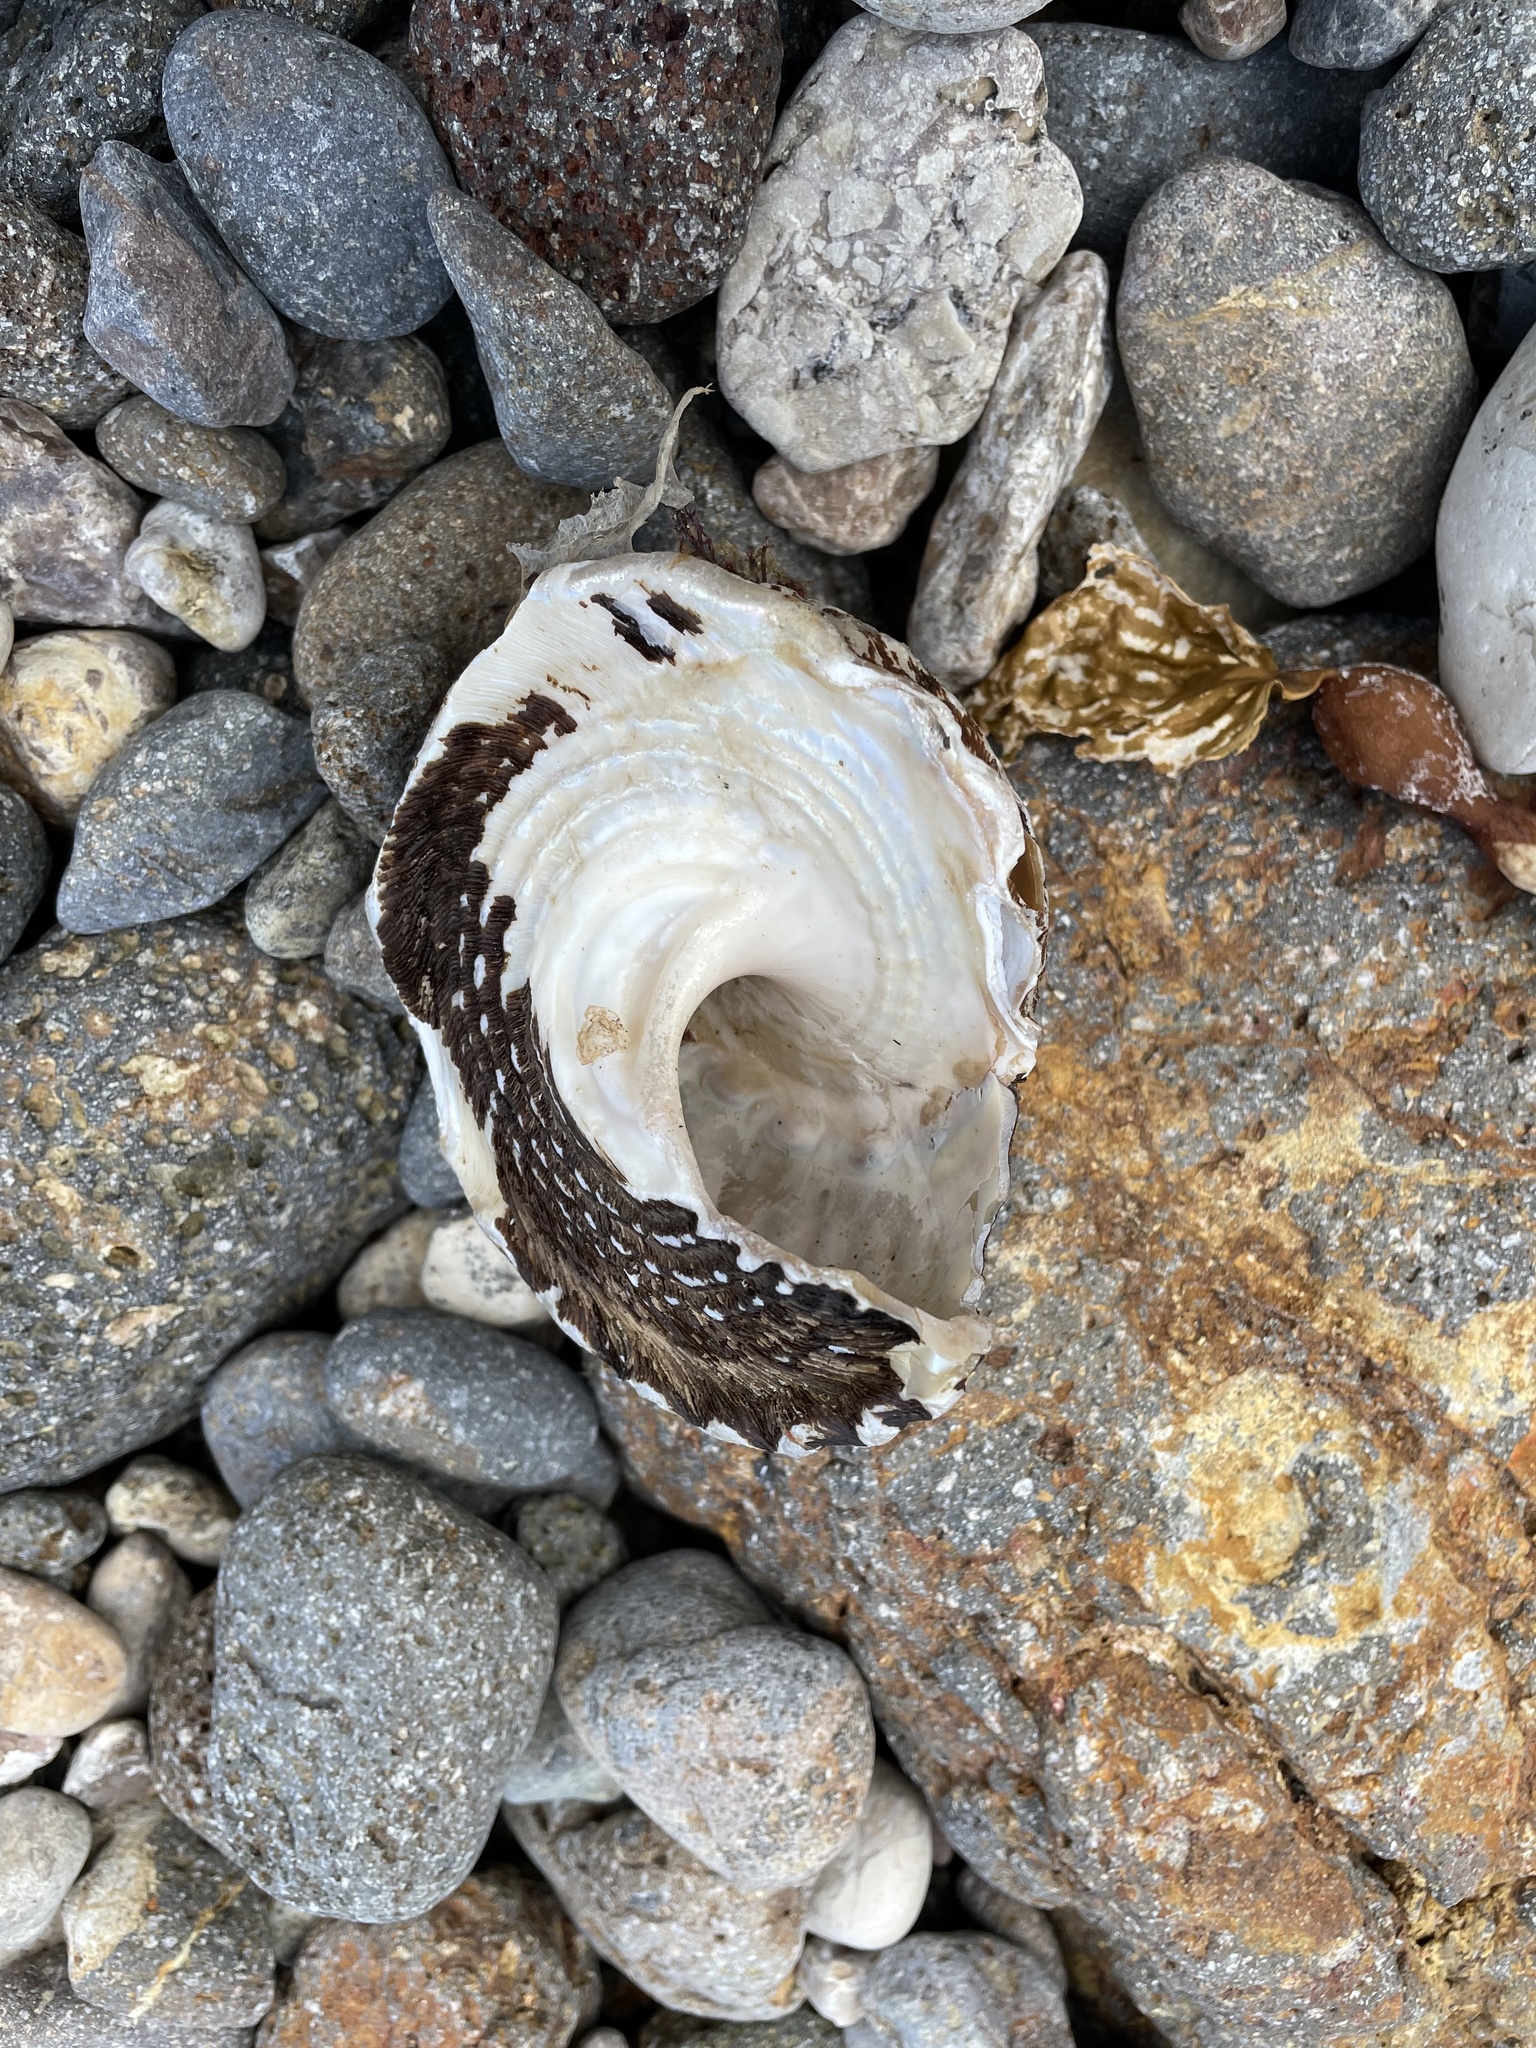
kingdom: Animalia
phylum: Mollusca
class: Gastropoda
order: Trochida
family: Turbinidae
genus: Megastraea
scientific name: Megastraea undosa
